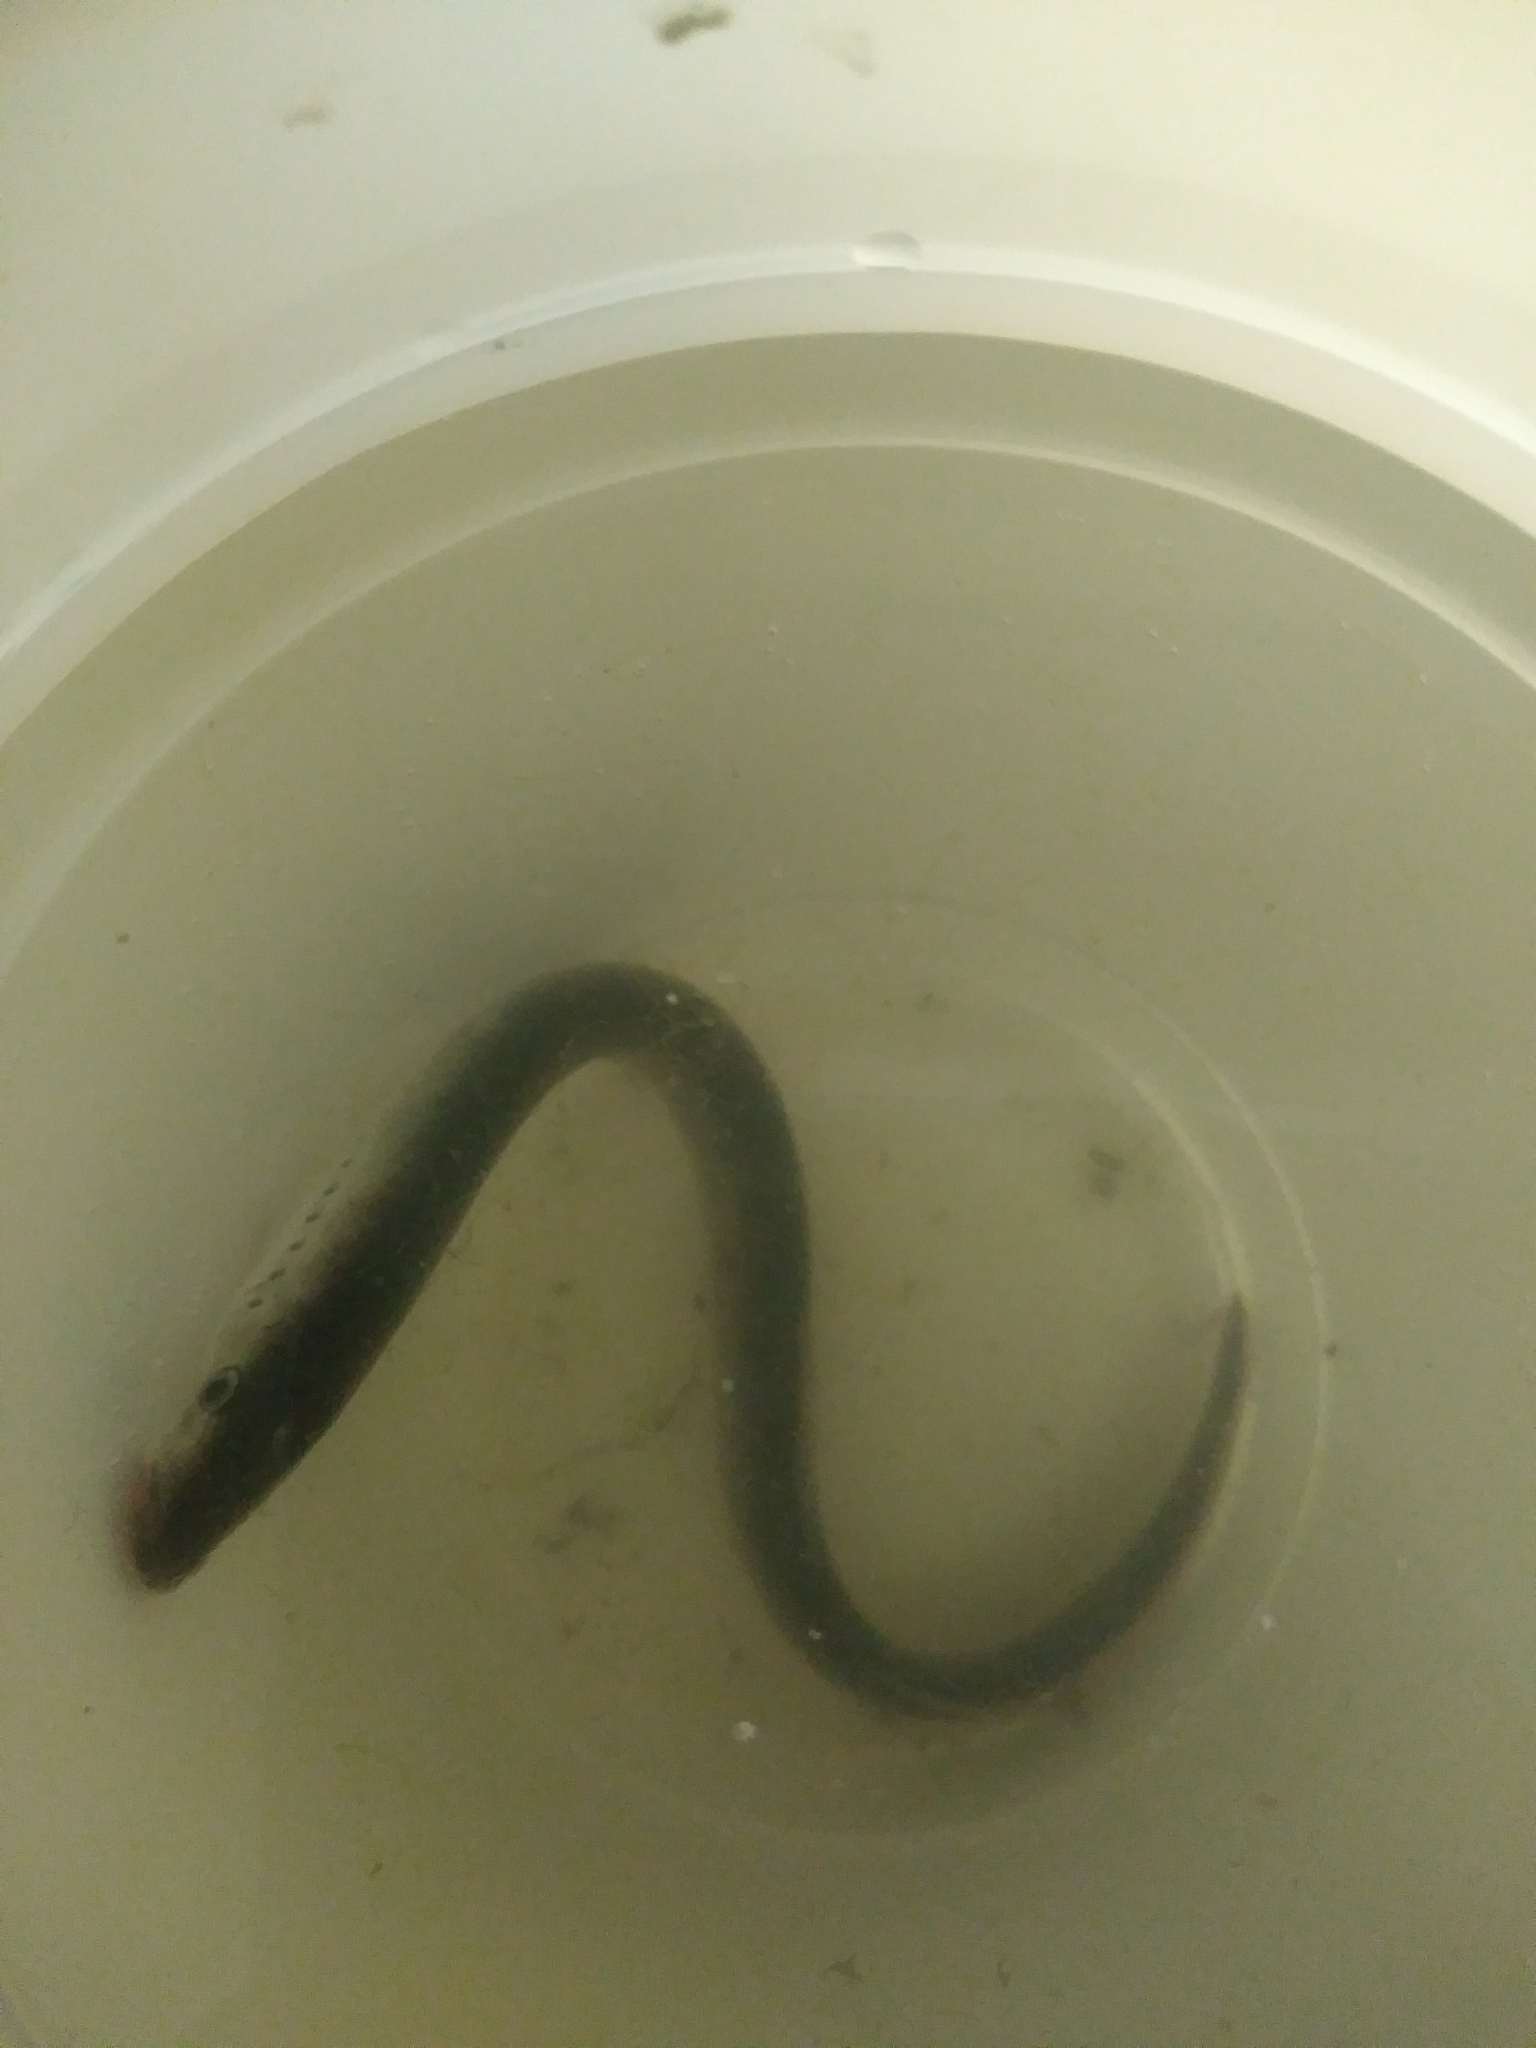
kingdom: Animalia
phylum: Chordata
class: Petromyzonti
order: Petromyzontiformes
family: Petromyzontidae
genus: Lampetra
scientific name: Lampetra richardsoni
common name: Western brook lamprey
